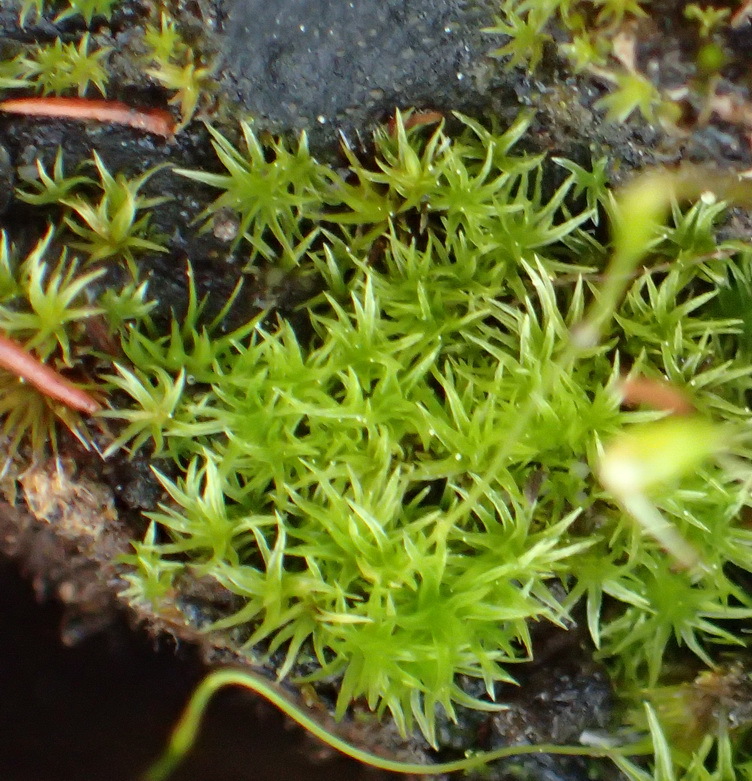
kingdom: Plantae
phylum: Bryophyta
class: Bryopsida
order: Dicranales
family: Ditrichaceae
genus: Ceratodon
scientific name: Ceratodon purpureus
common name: Redshank
